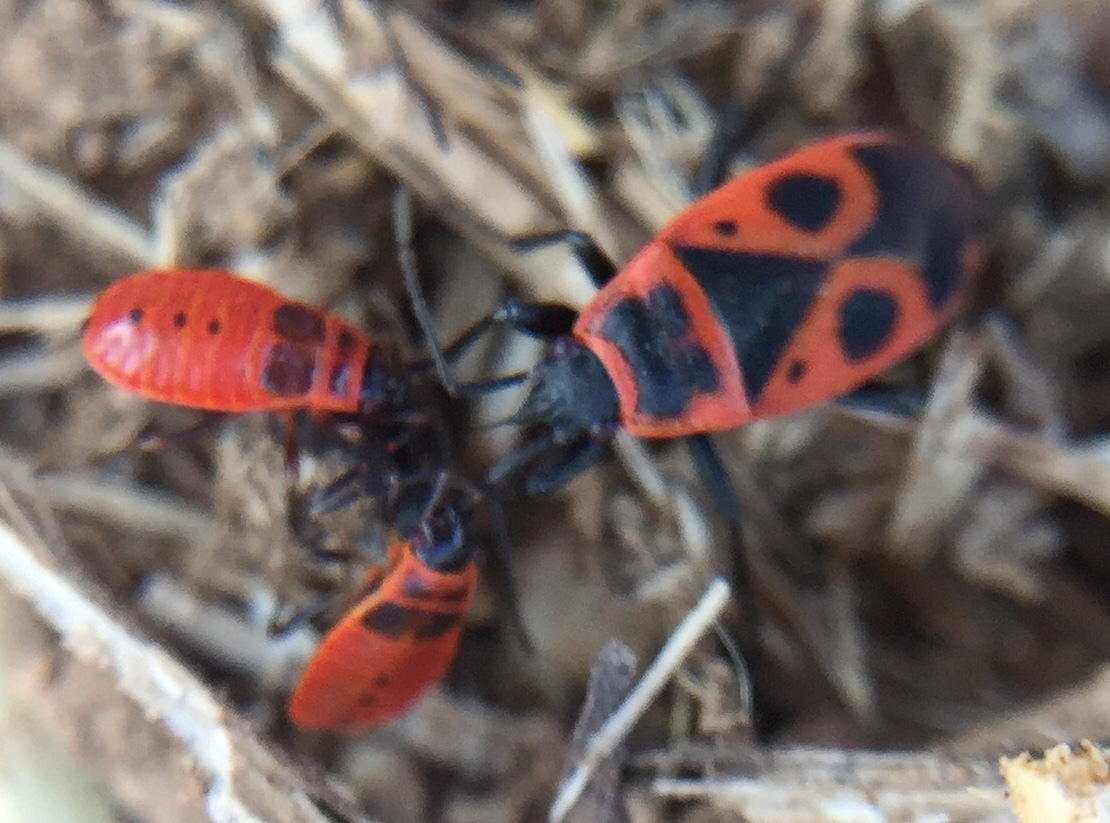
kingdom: Animalia
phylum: Arthropoda
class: Insecta
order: Hemiptera
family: Pyrrhocoridae
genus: Pyrrhocoris
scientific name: Pyrrhocoris apterus
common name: Firebug
